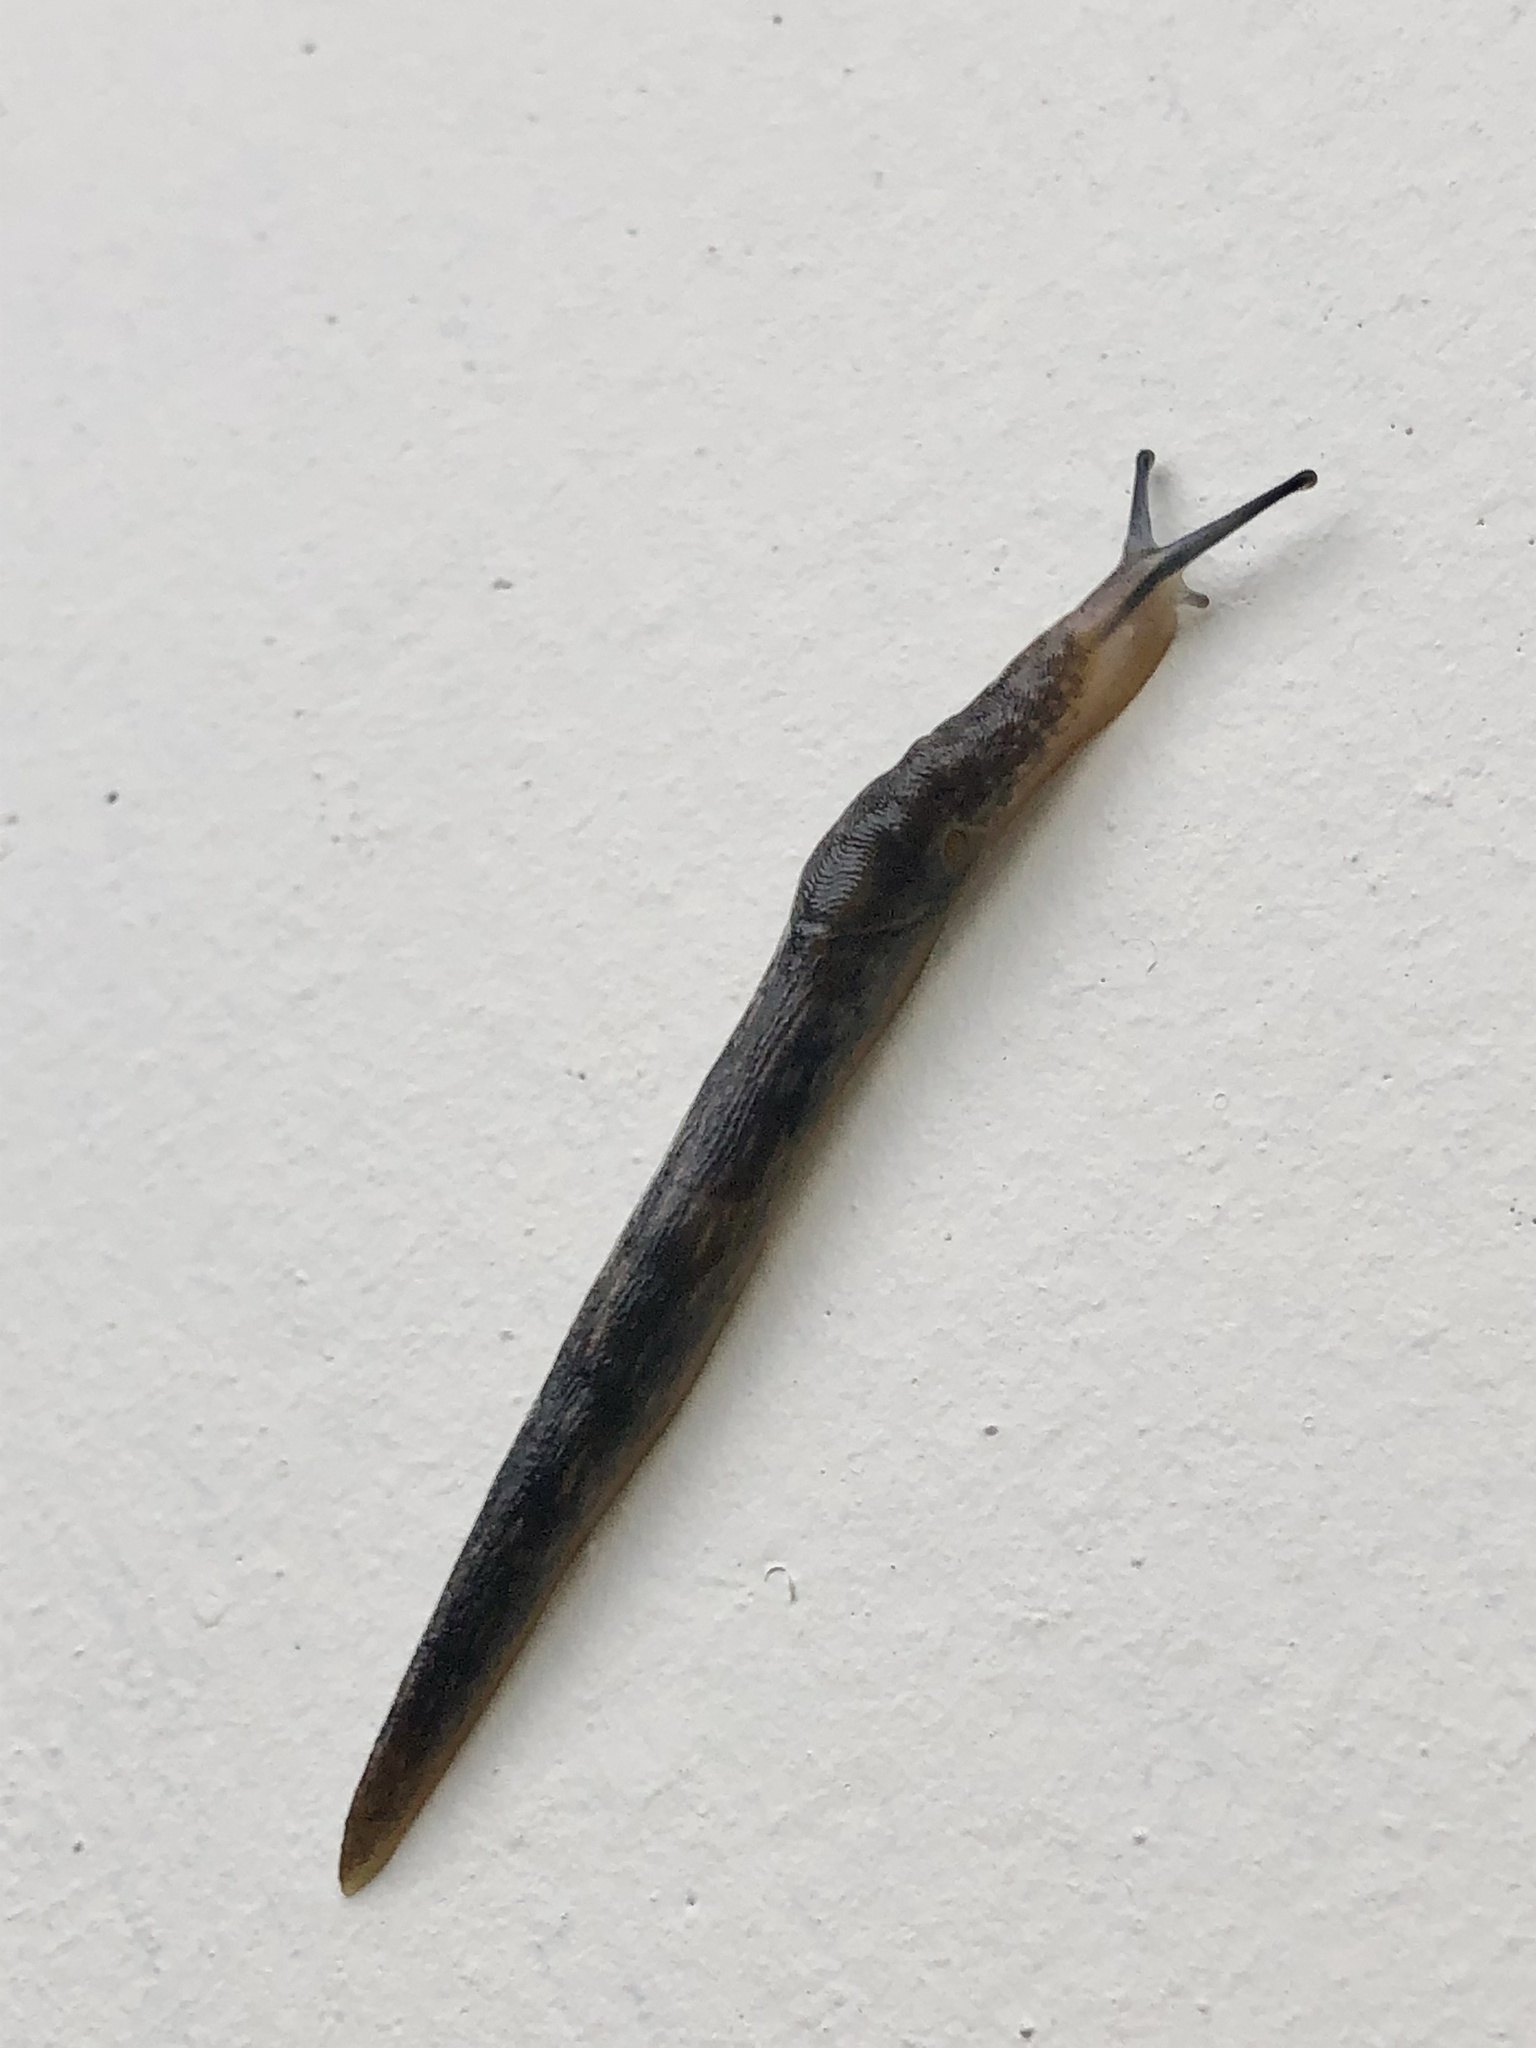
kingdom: Animalia
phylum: Mollusca
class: Gastropoda
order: Stylommatophora
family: Limacidae
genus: Limacus
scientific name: Limacus flavus
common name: Yellow gardenslug
